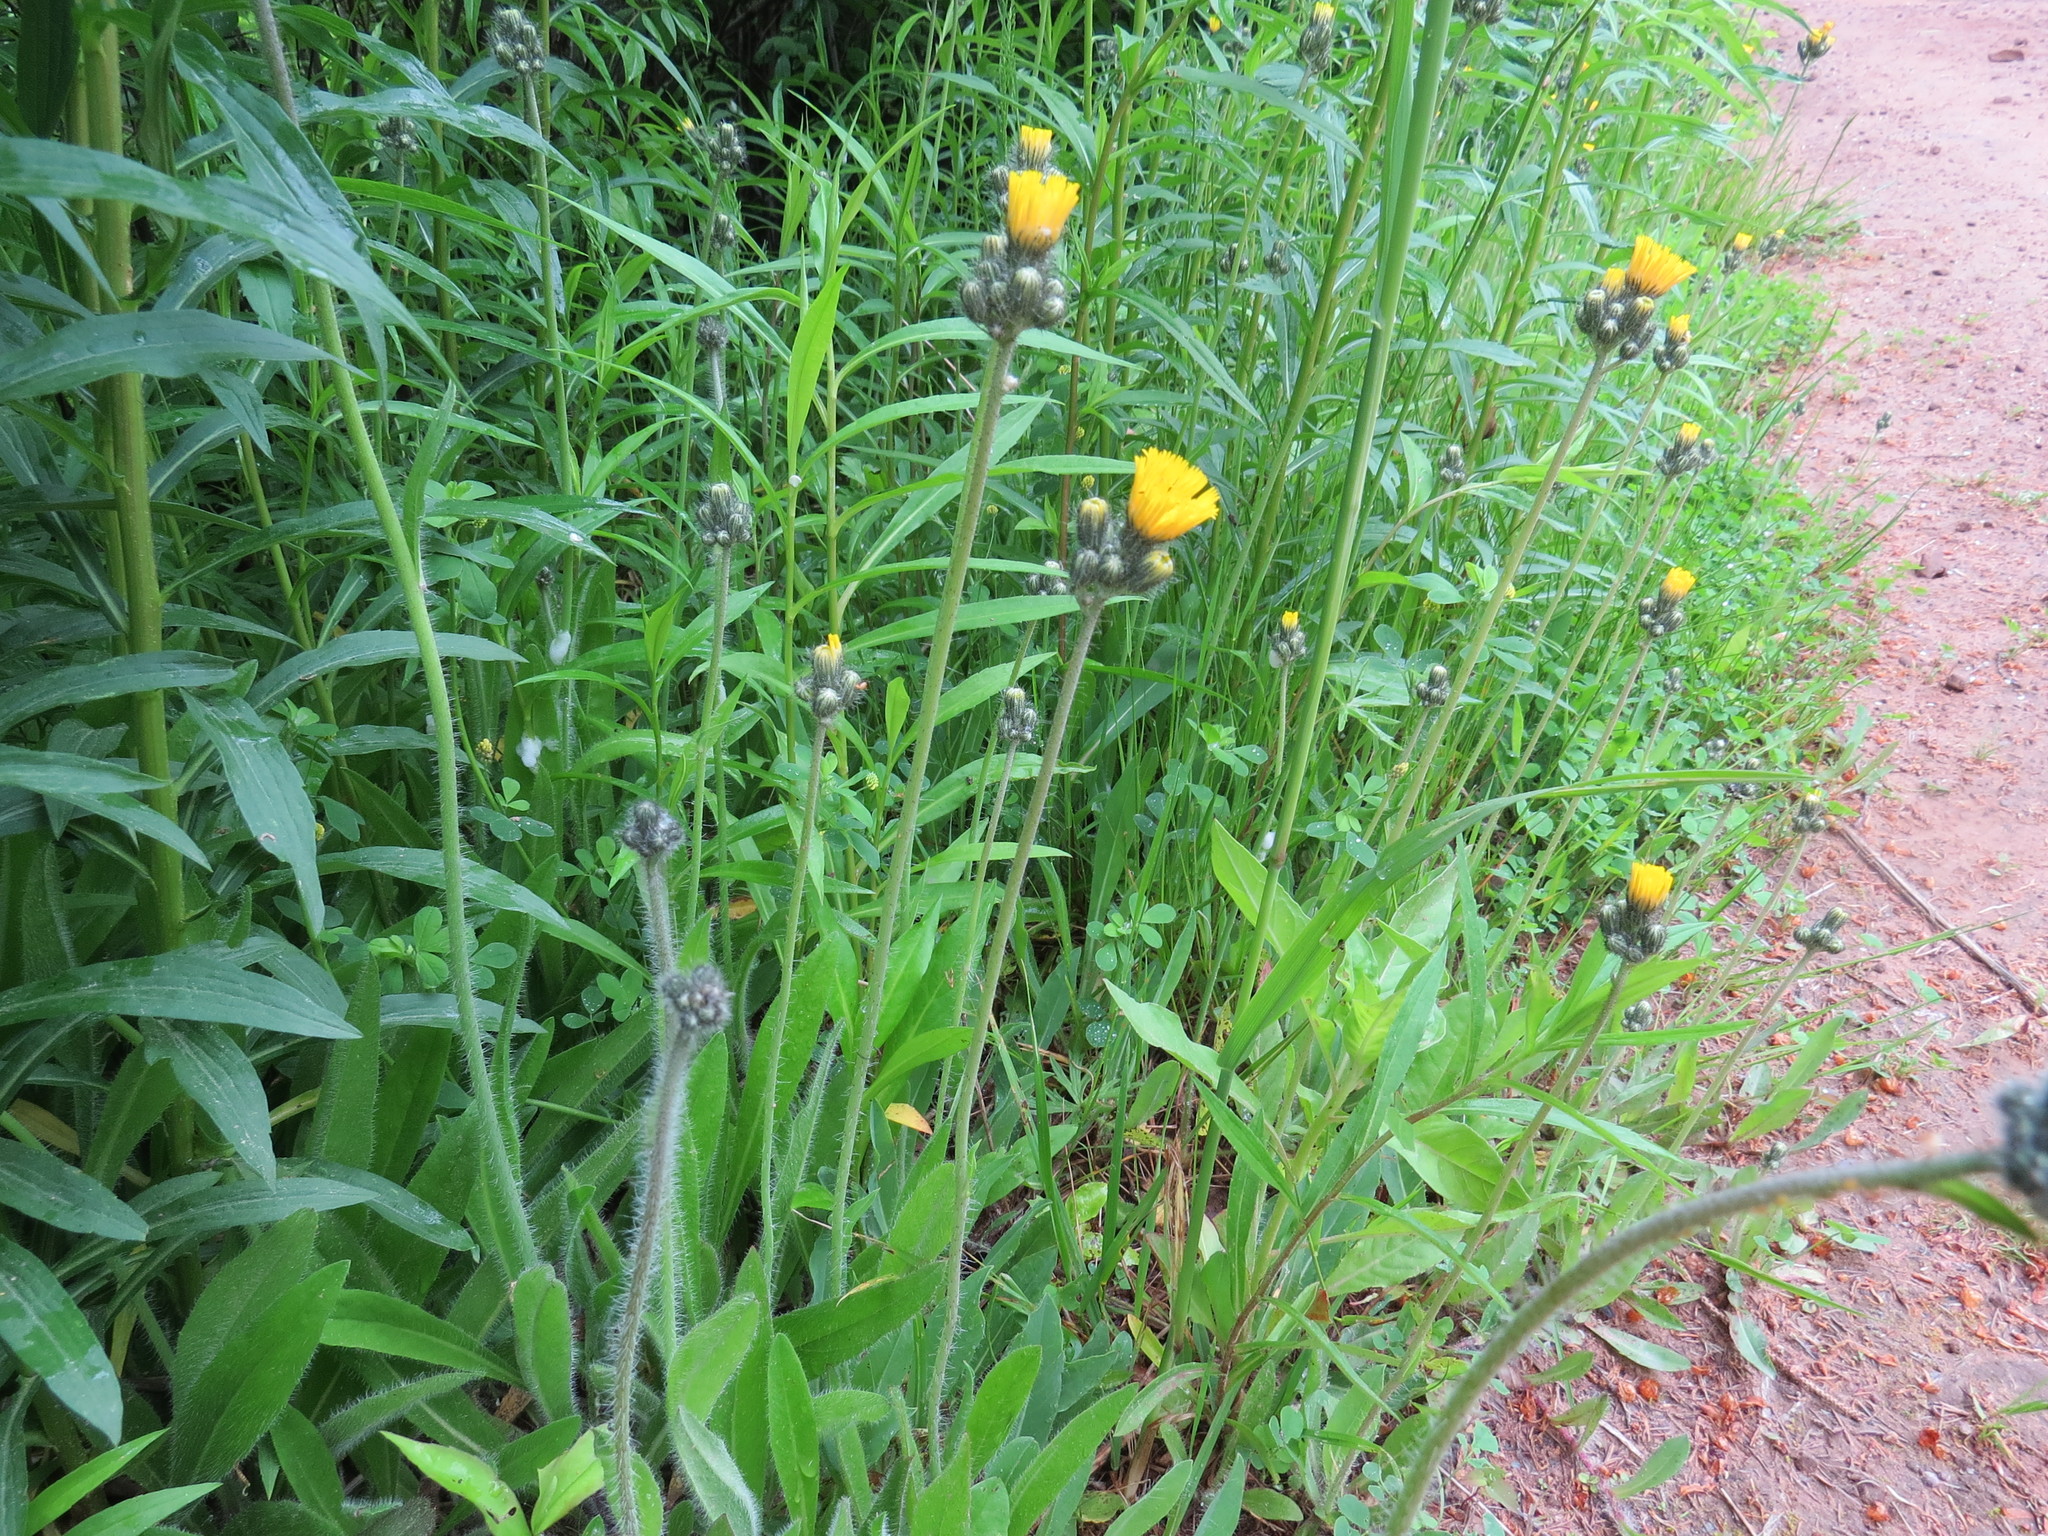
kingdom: Plantae
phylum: Tracheophyta
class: Magnoliopsida
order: Asterales
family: Asteraceae
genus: Pilosella
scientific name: Pilosella piloselloides
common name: Glaucous king-devil
